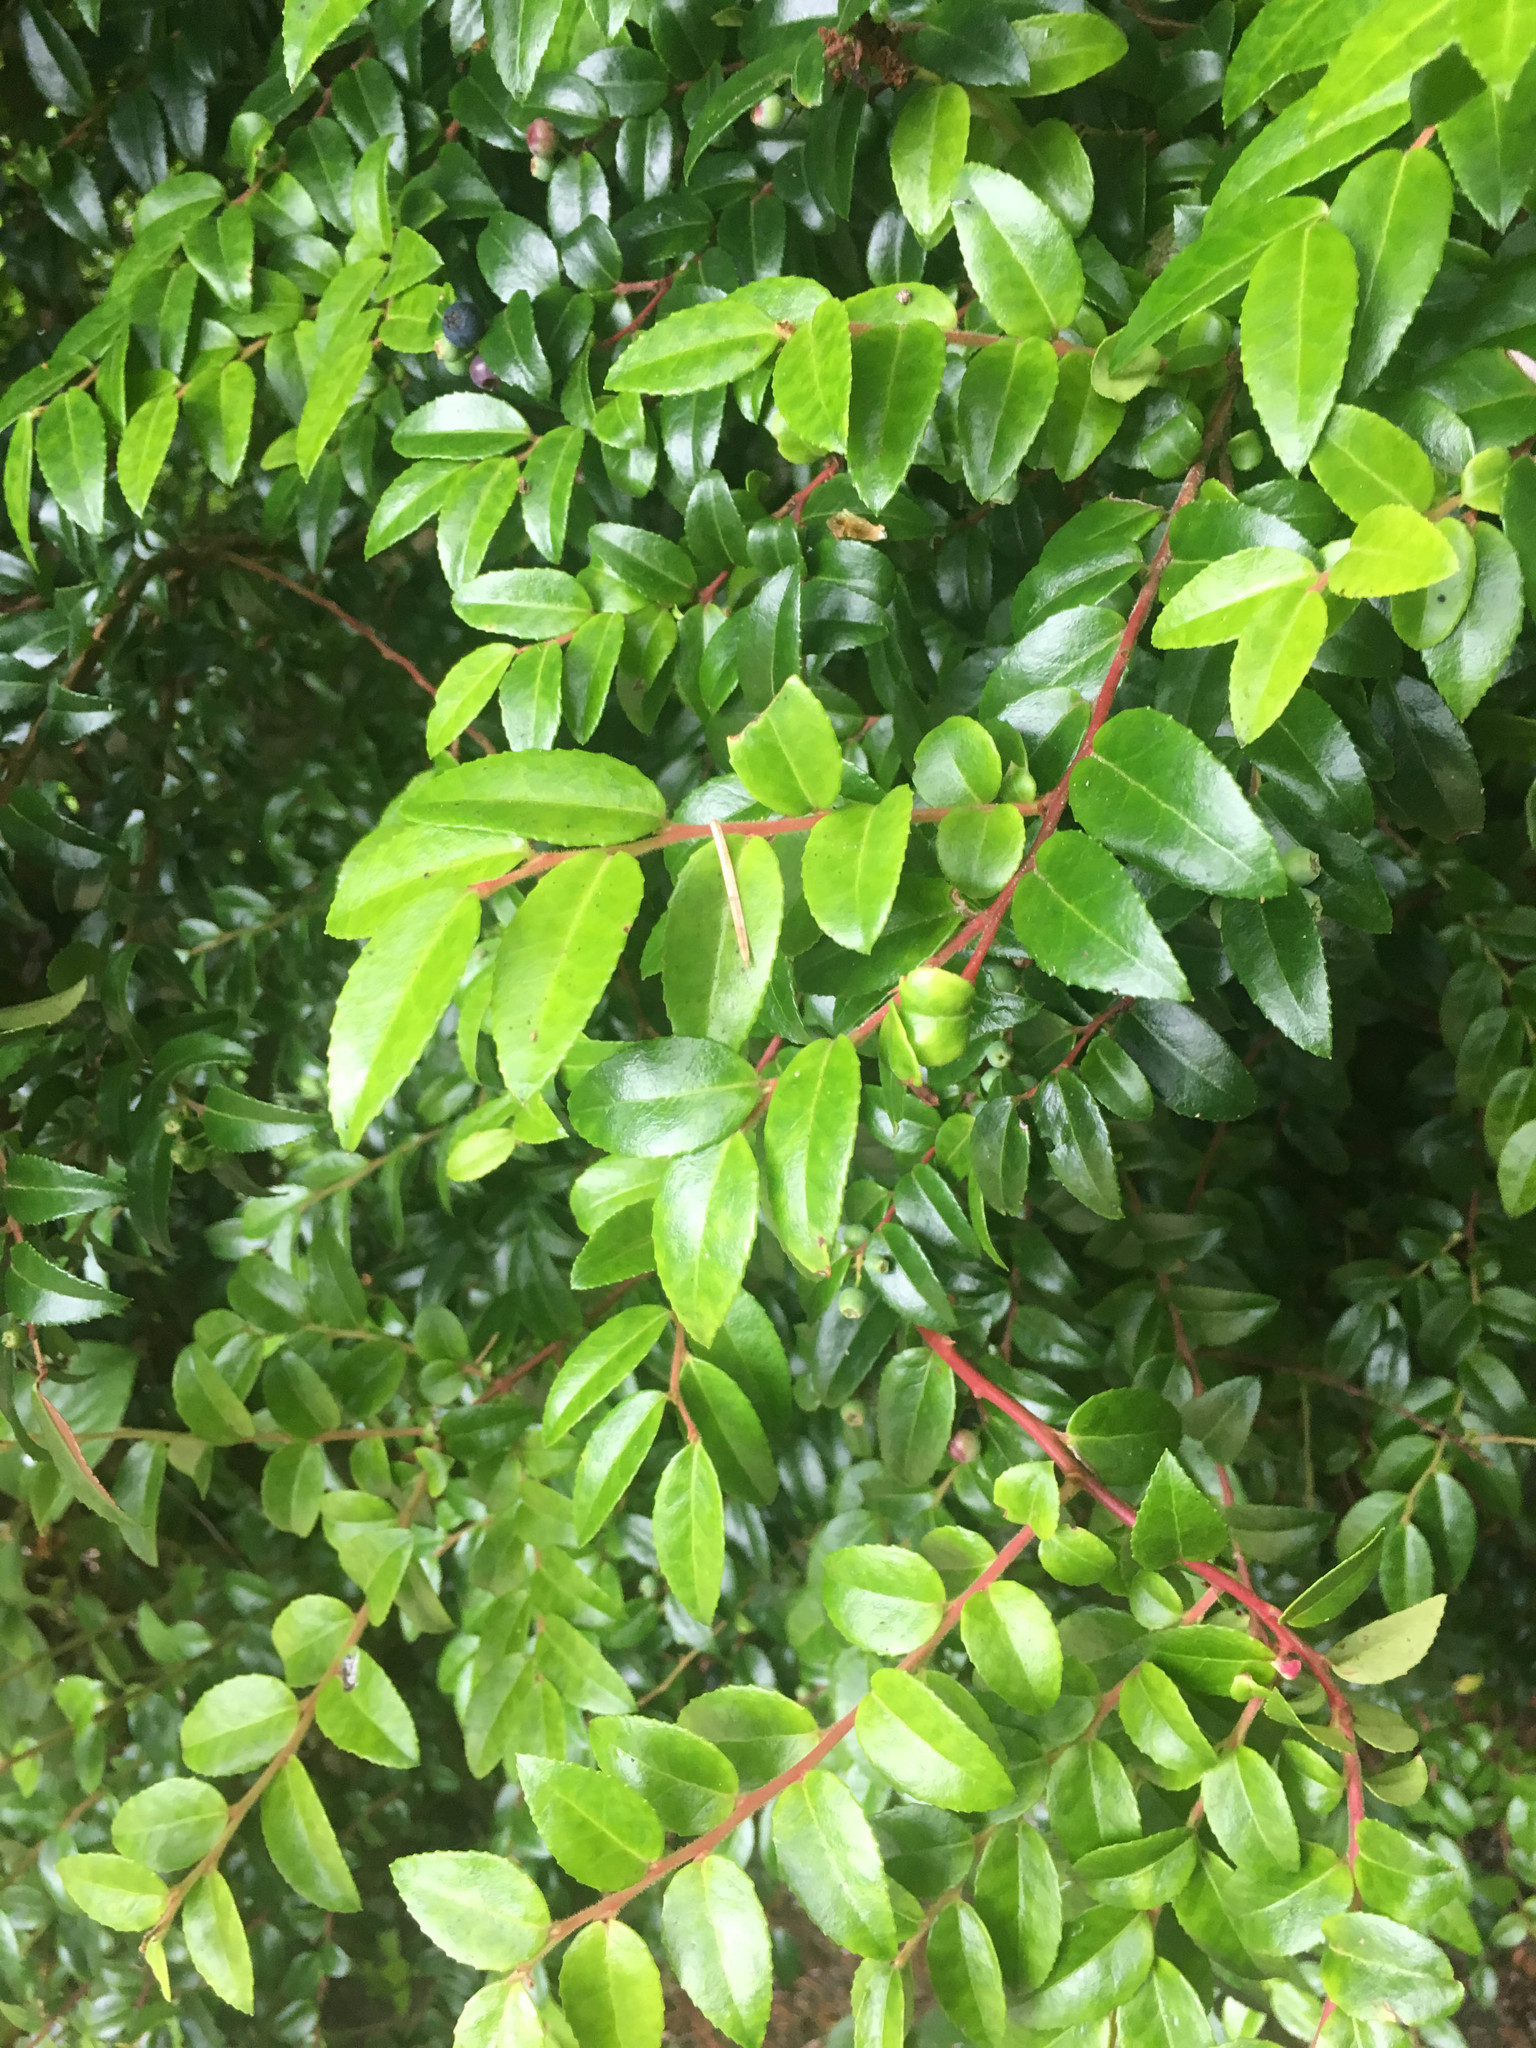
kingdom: Plantae
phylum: Tracheophyta
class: Magnoliopsida
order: Ericales
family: Ericaceae
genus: Vaccinium
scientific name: Vaccinium ovatum
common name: California-huckleberry
